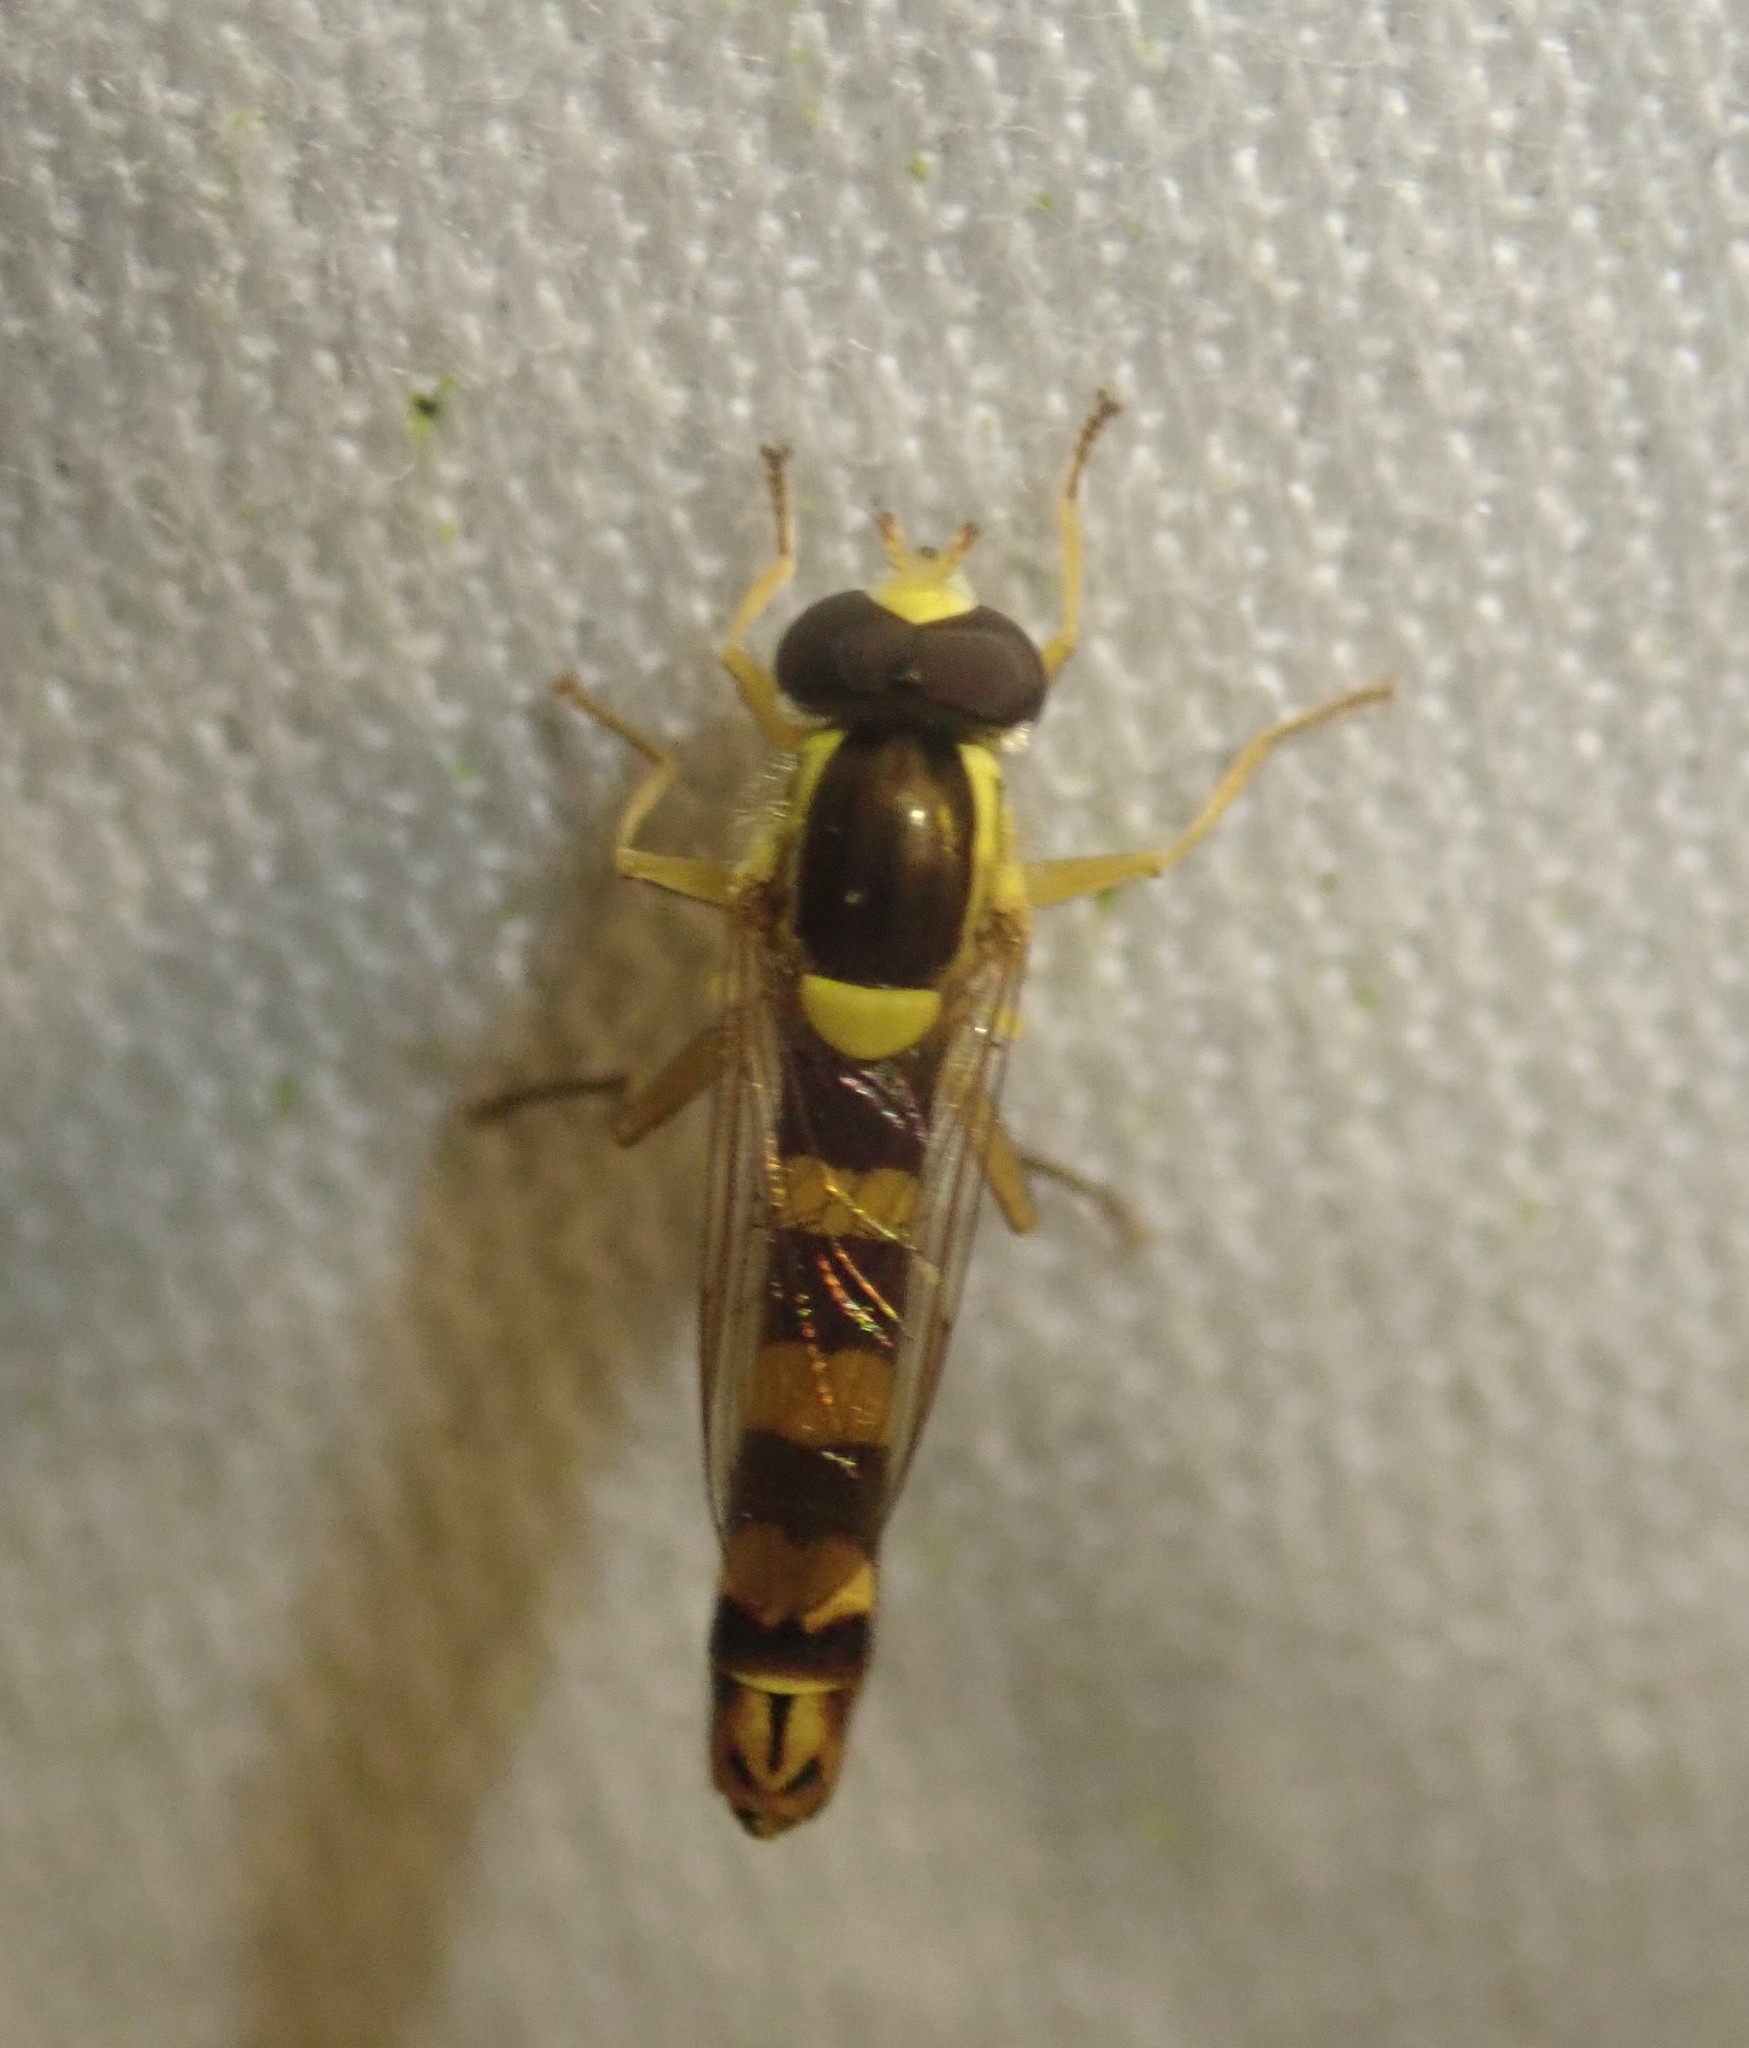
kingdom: Animalia
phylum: Arthropoda
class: Insecta
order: Diptera
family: Syrphidae
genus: Sphaerophoria
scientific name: Sphaerophoria scripta
